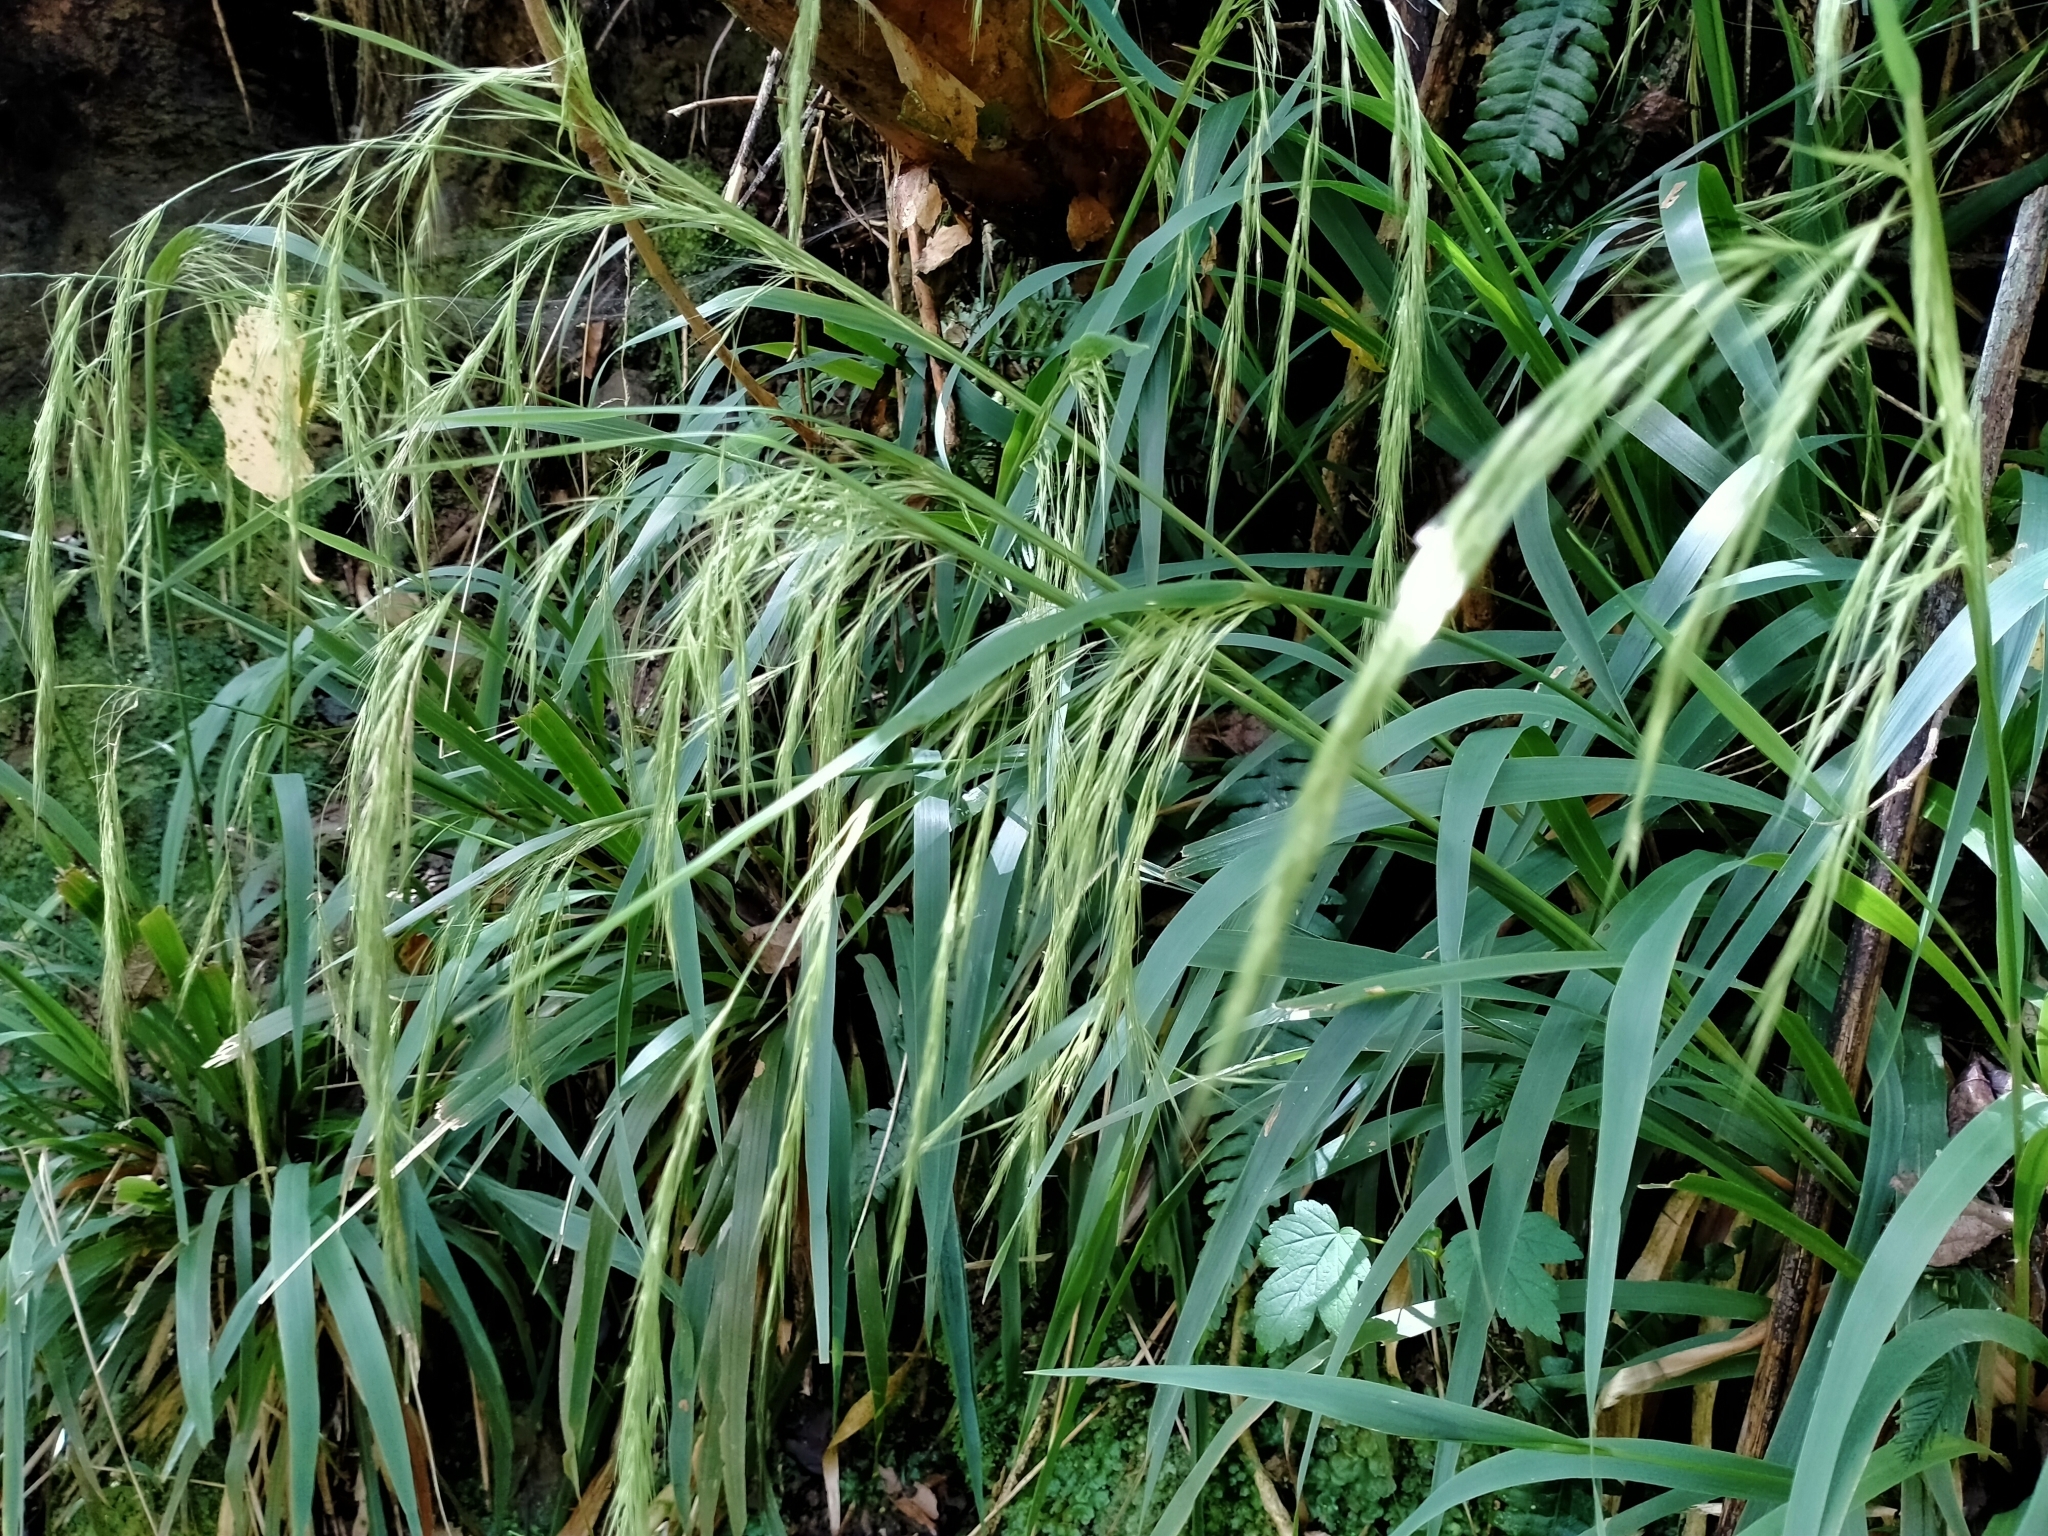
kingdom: Plantae
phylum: Tracheophyta
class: Liliopsida
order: Poales
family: Poaceae
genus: Ehrharta
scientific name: Ehrharta diplax
